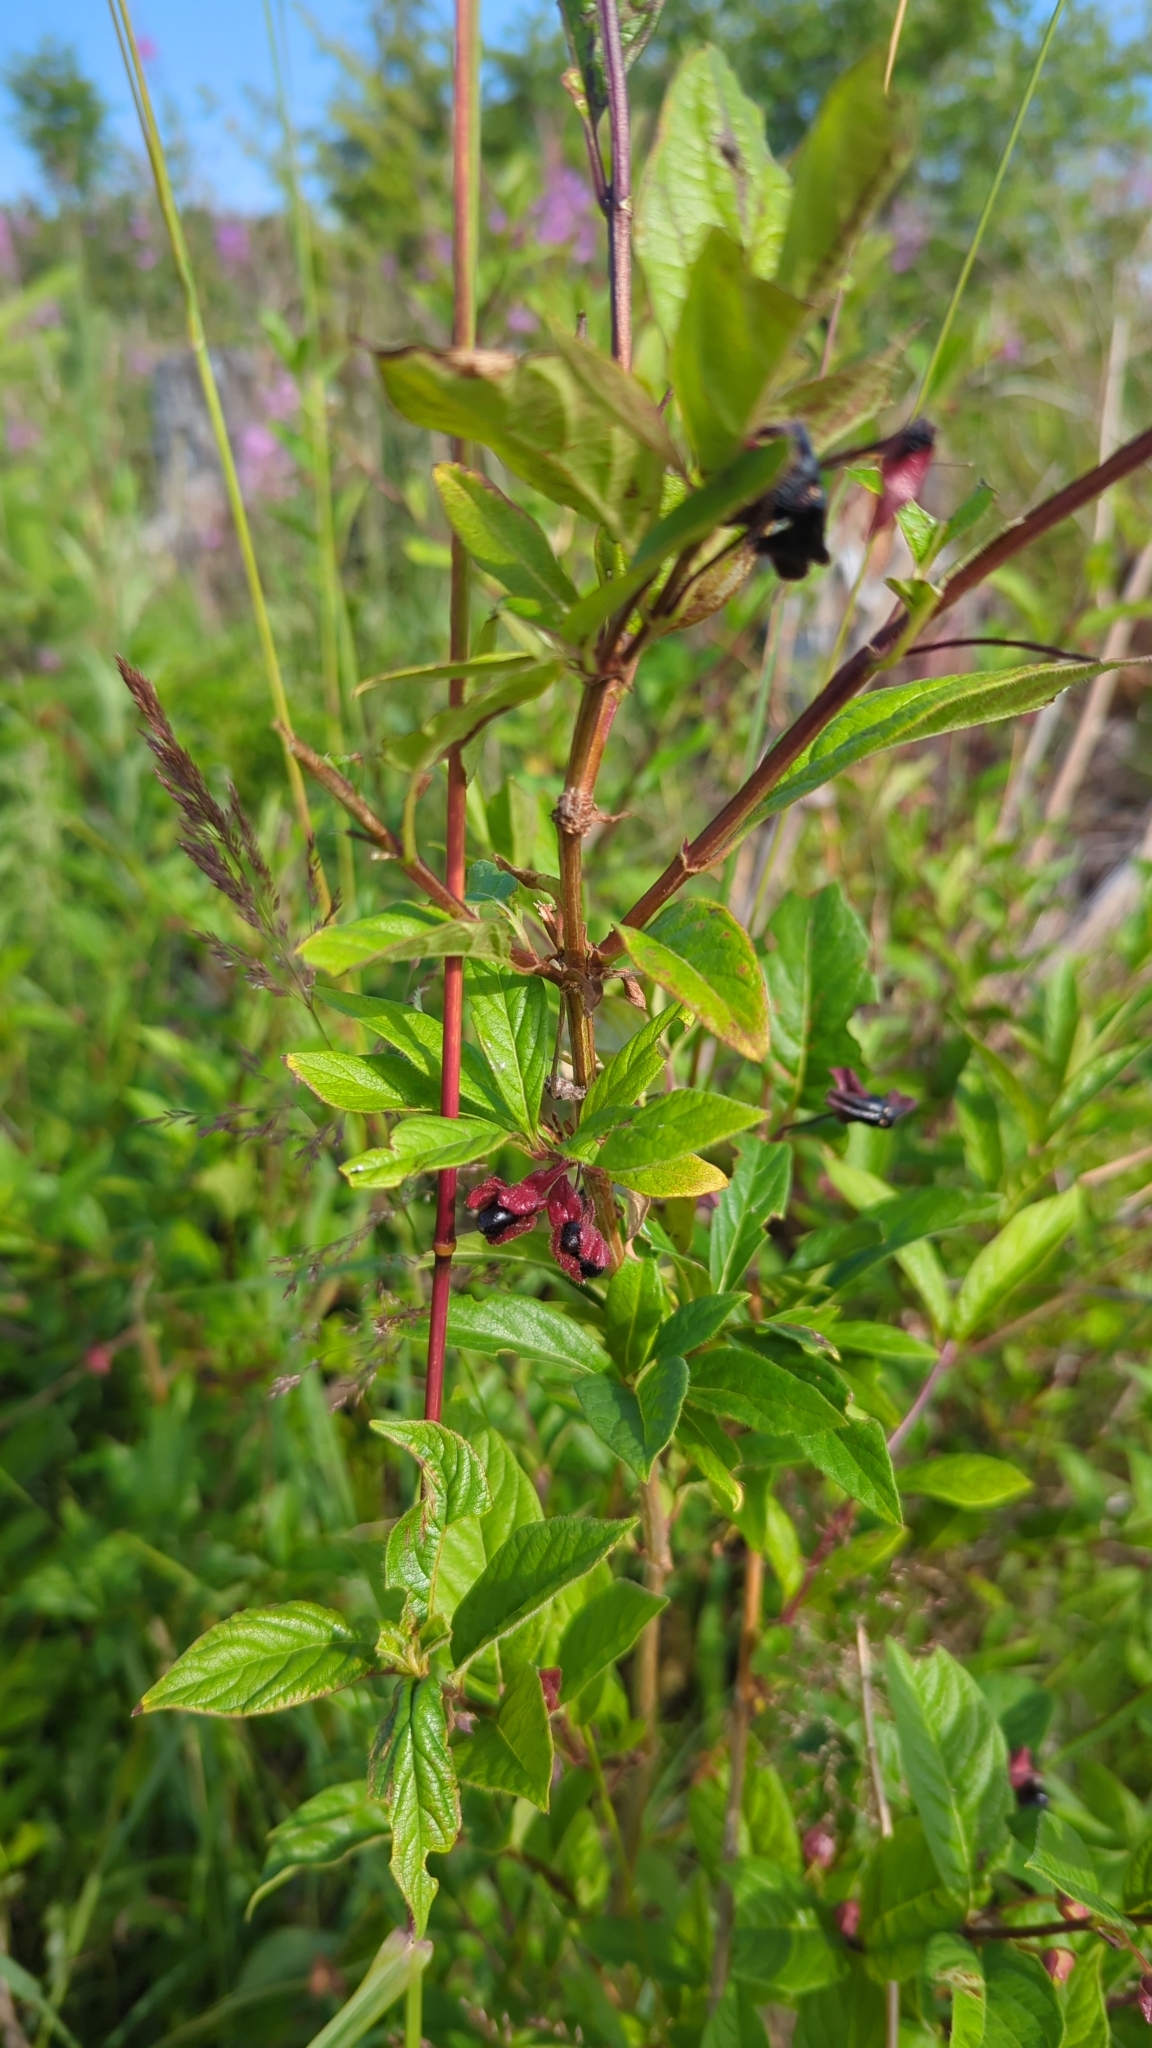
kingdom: Plantae
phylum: Tracheophyta
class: Magnoliopsida
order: Dipsacales
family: Caprifoliaceae
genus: Lonicera
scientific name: Lonicera involucrata
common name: Californian honeysuckle
